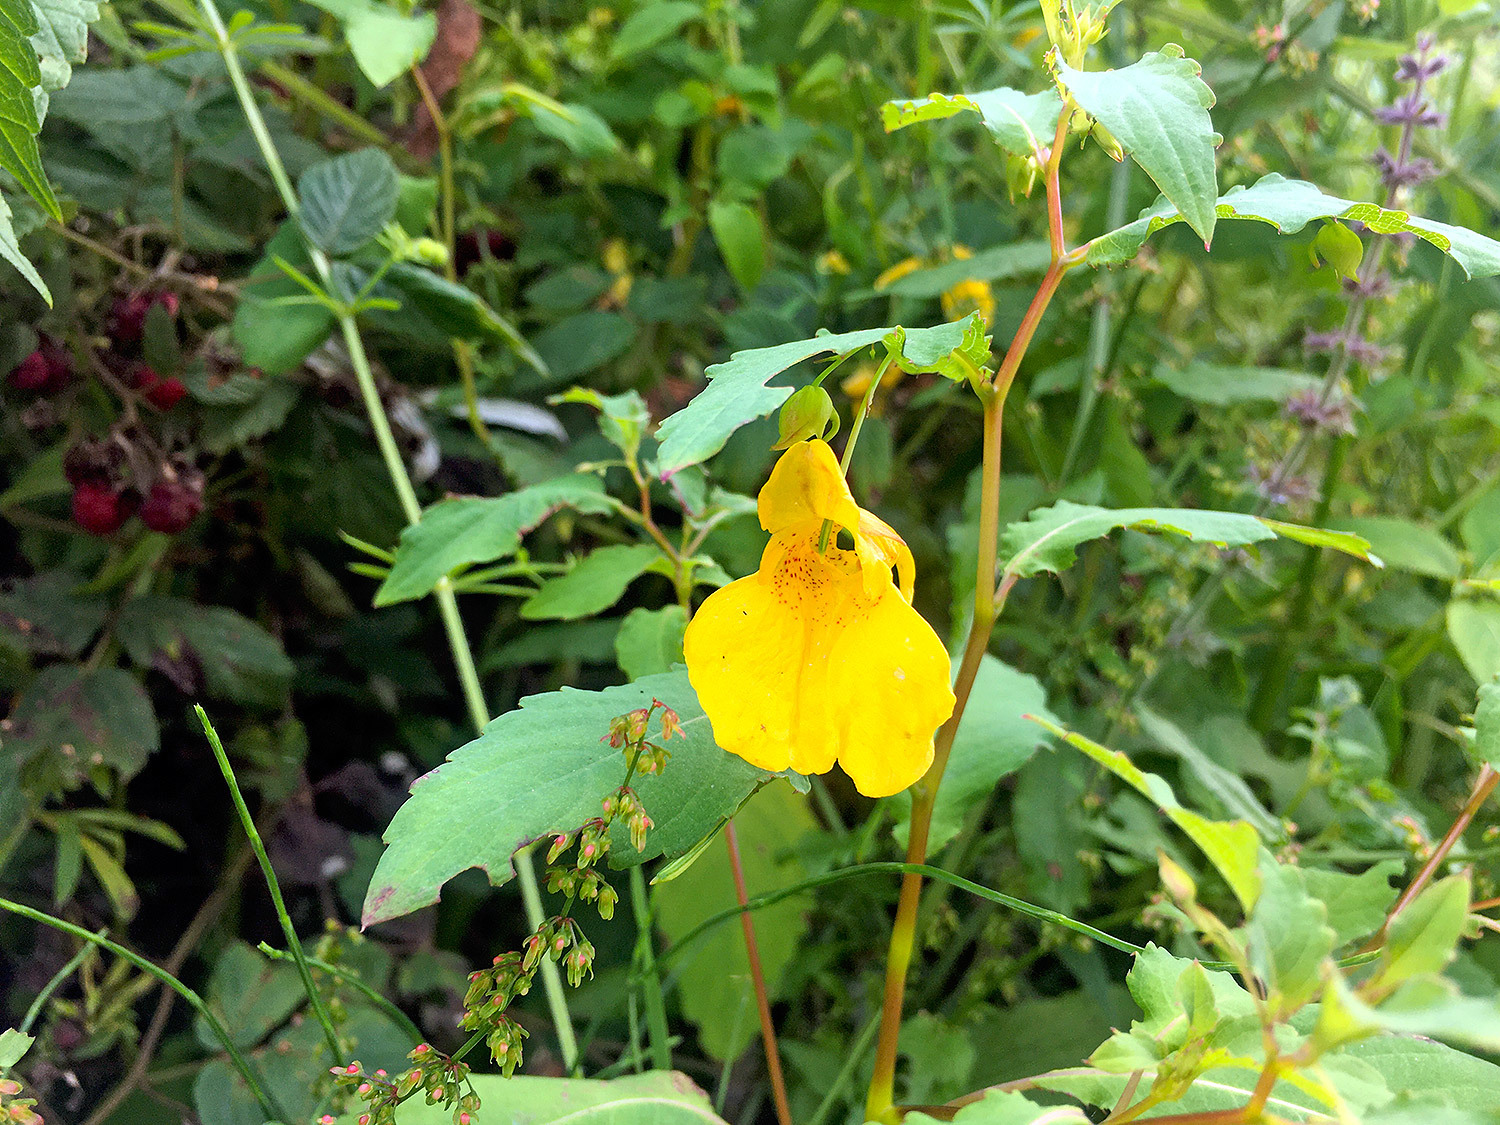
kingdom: Plantae
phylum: Tracheophyta
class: Magnoliopsida
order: Ericales
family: Balsaminaceae
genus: Impatiens
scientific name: Impatiens noli-tangere
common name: Touch-me-not balsam
